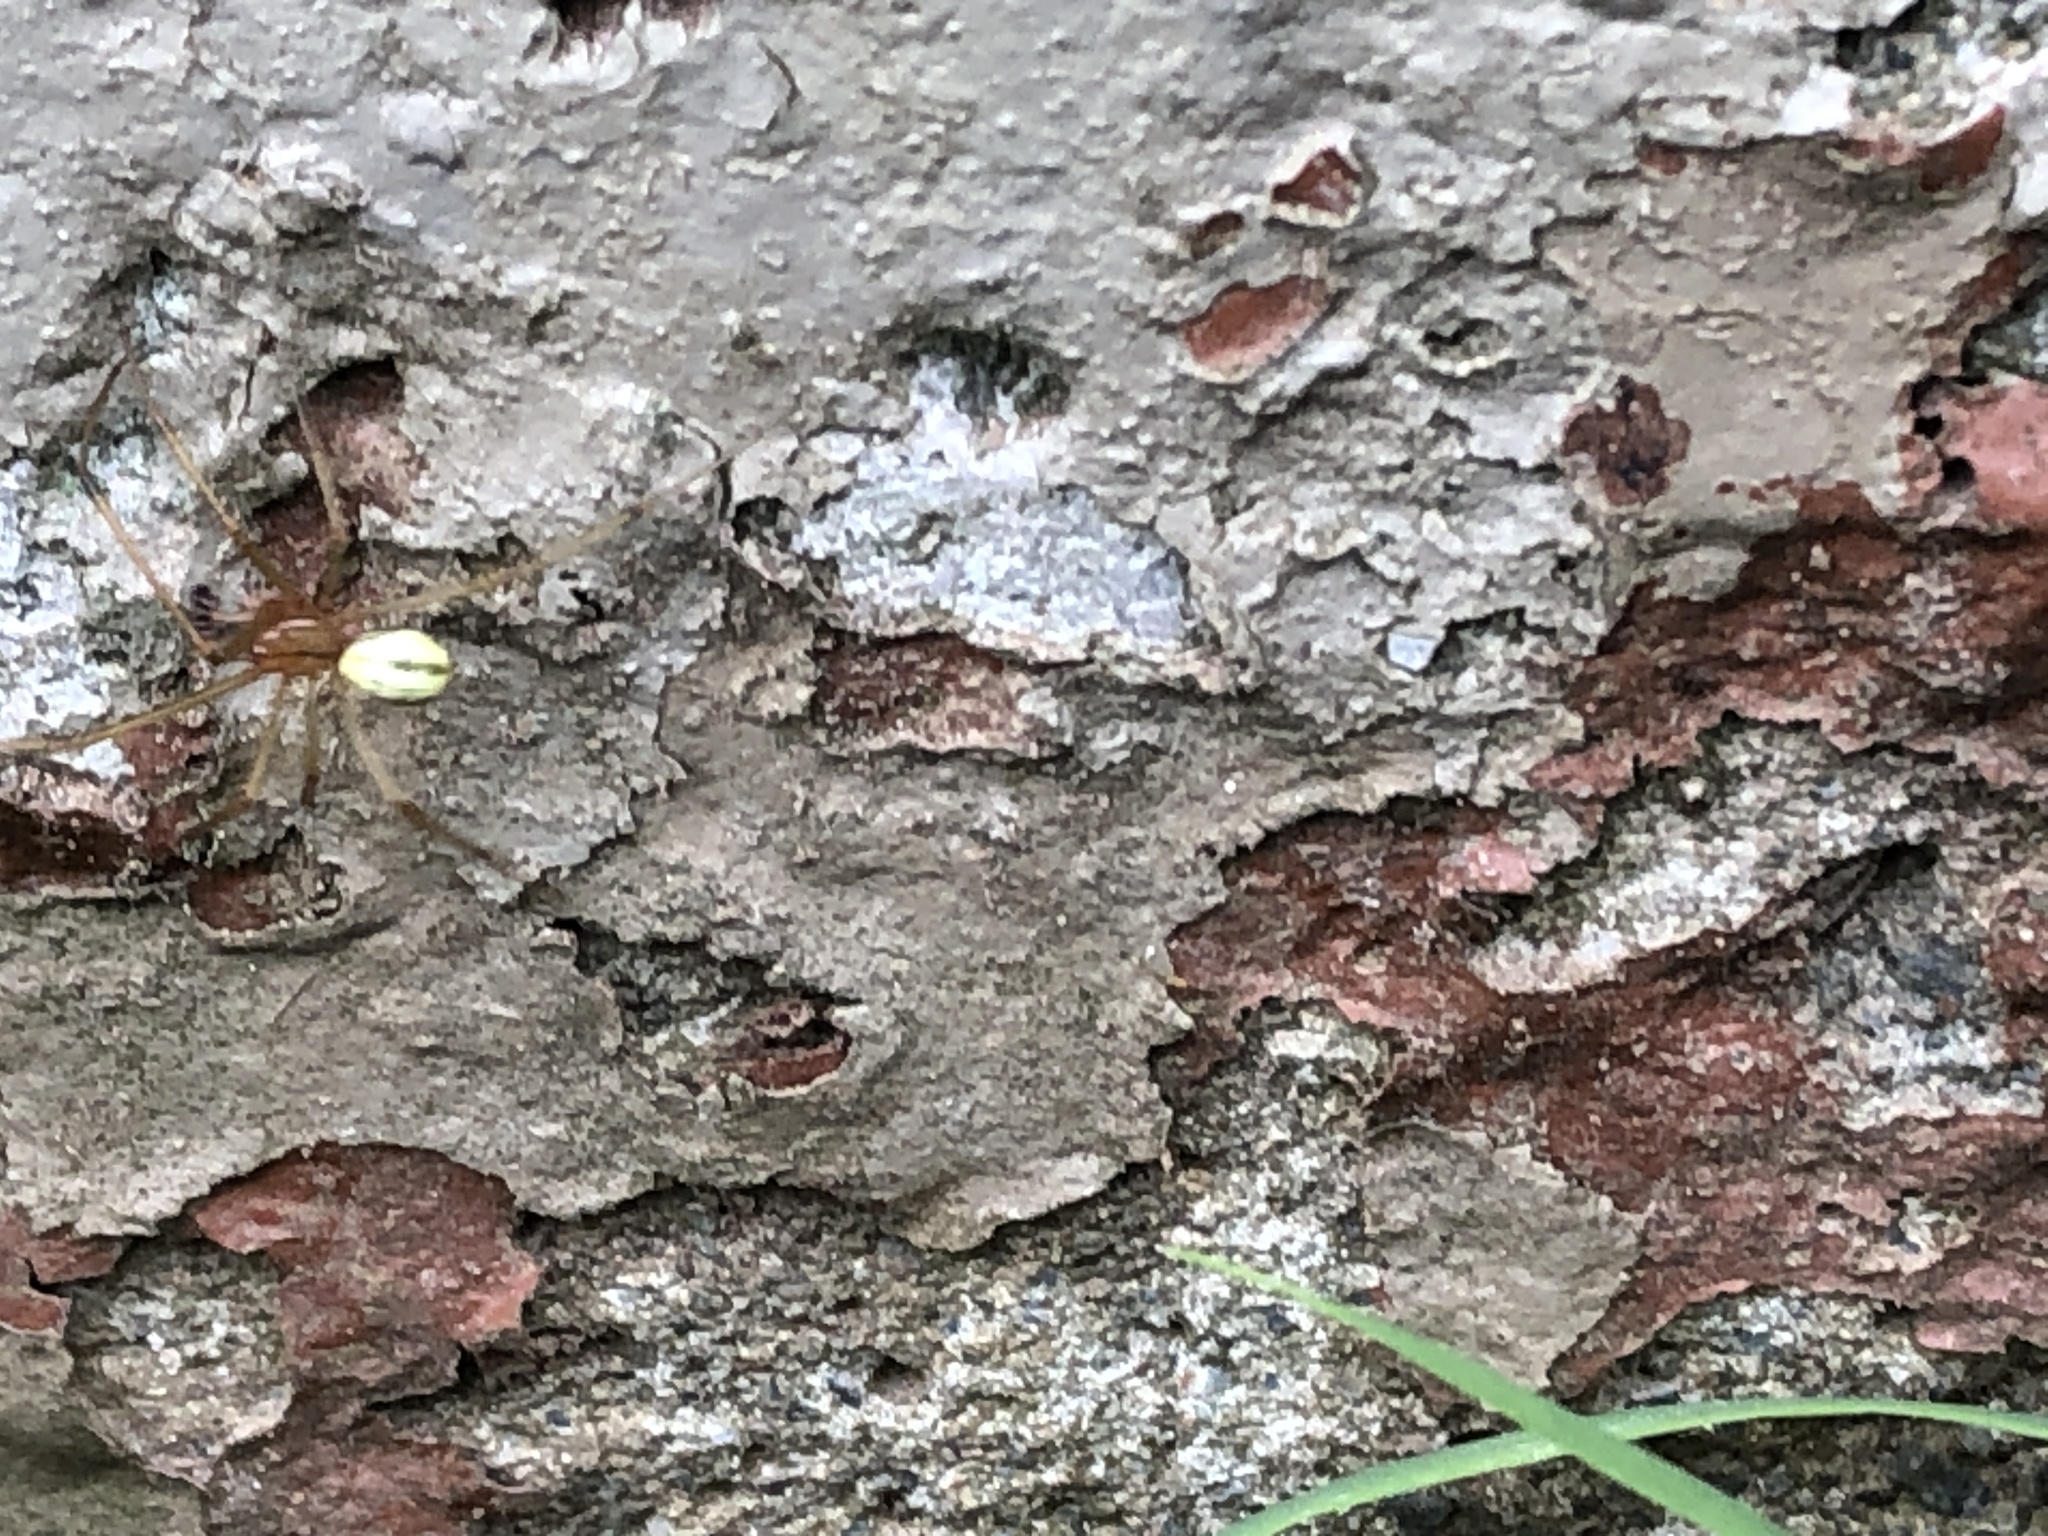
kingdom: Animalia
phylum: Arthropoda
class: Arachnida
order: Araneae
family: Theridiidae
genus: Enoplognatha
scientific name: Enoplognatha ovata
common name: Common candy-striped spider
